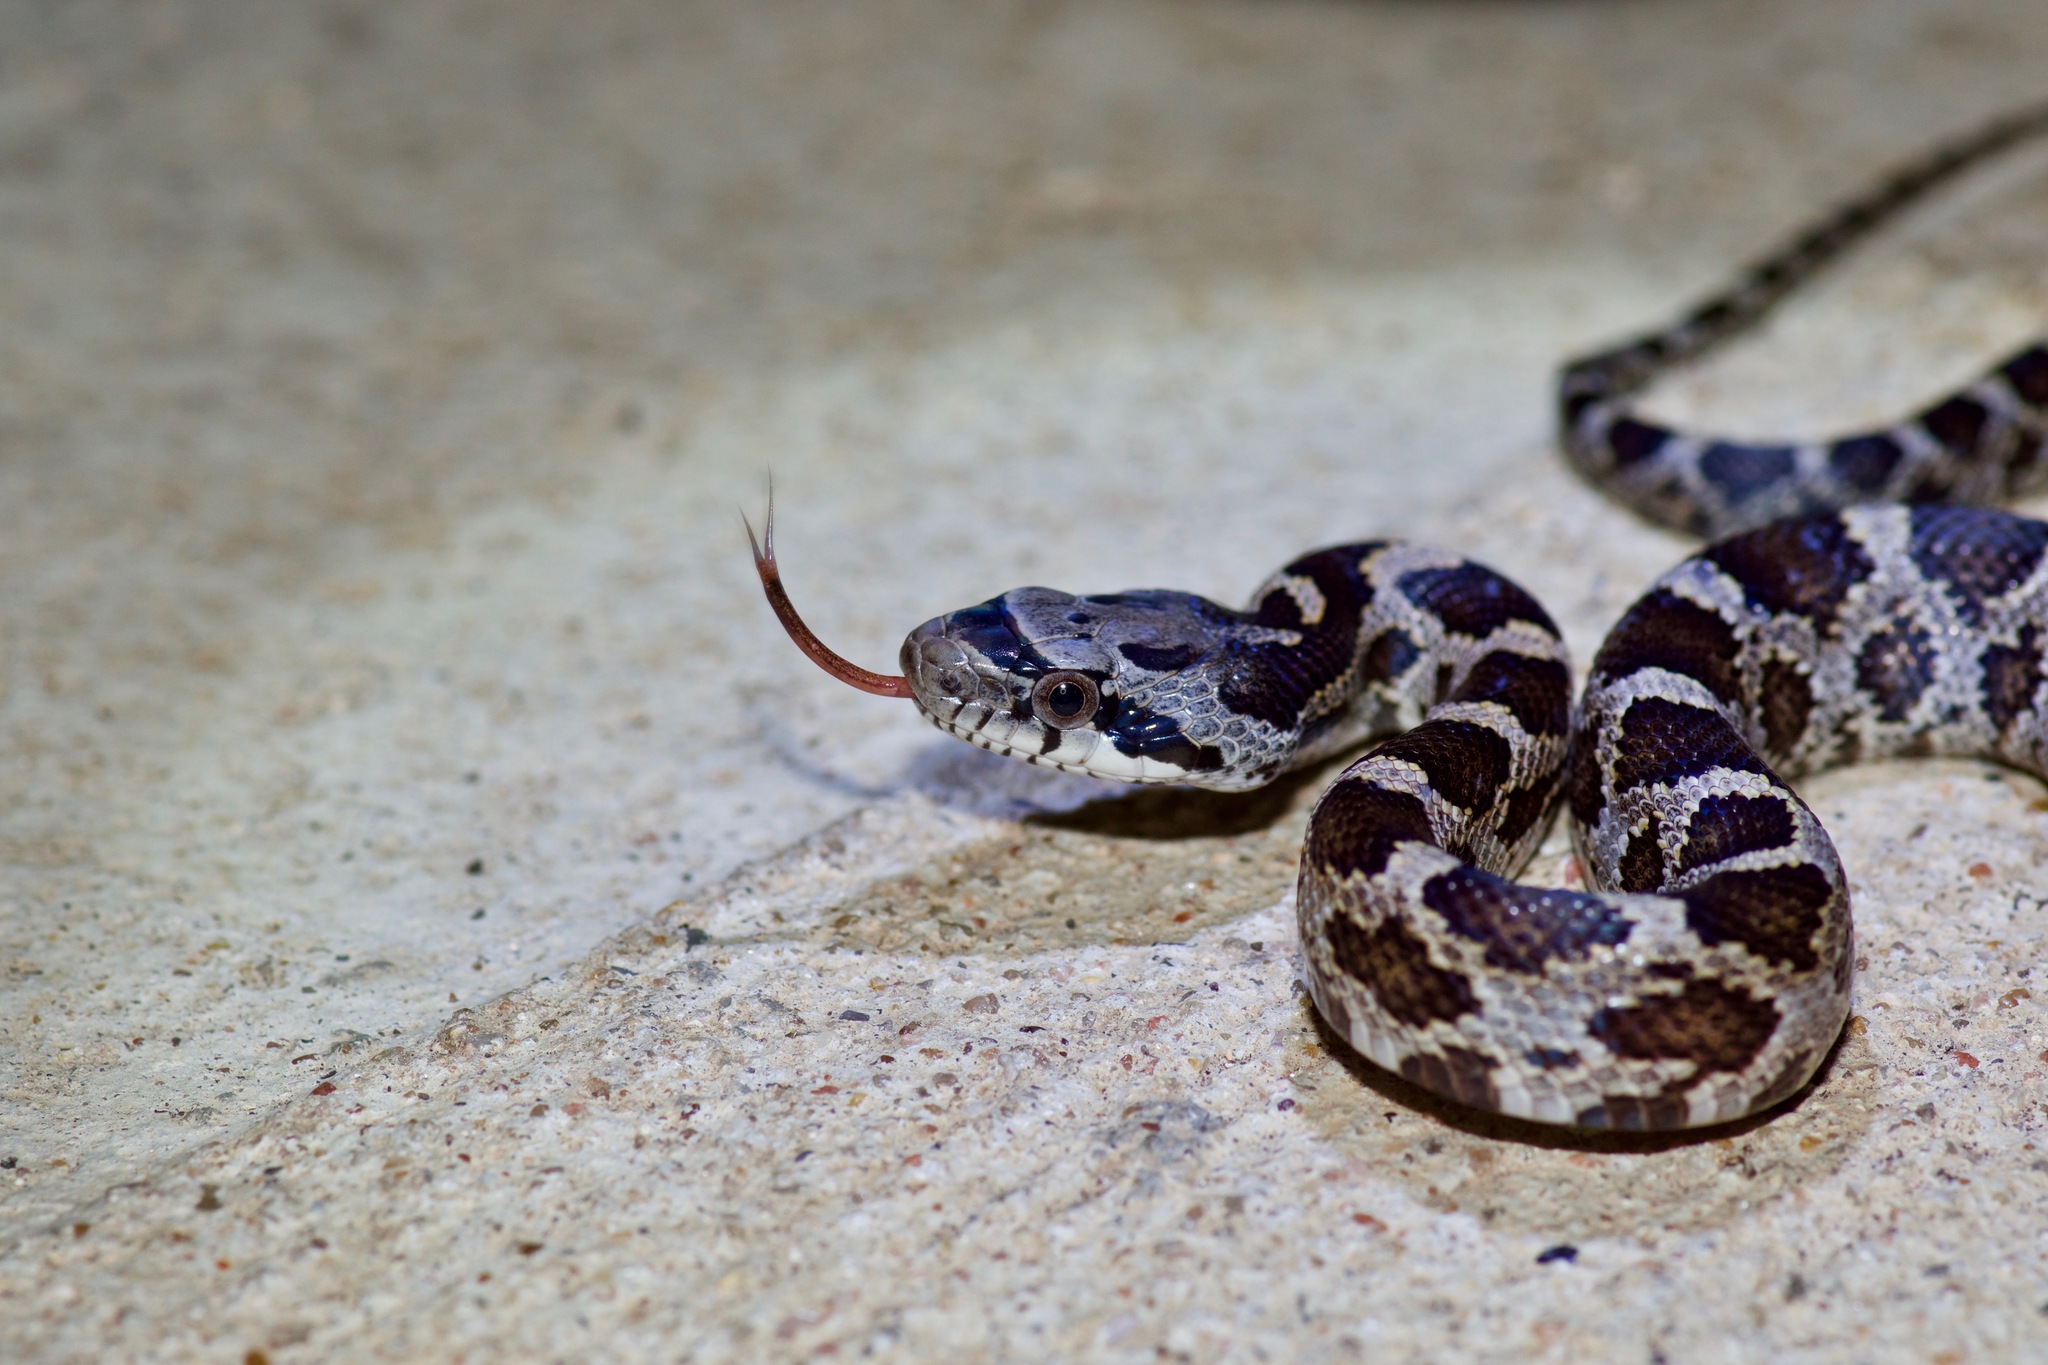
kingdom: Animalia
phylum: Chordata
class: Squamata
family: Colubridae
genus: Pantherophis
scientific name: Pantherophis obsoletus
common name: Black rat snake
